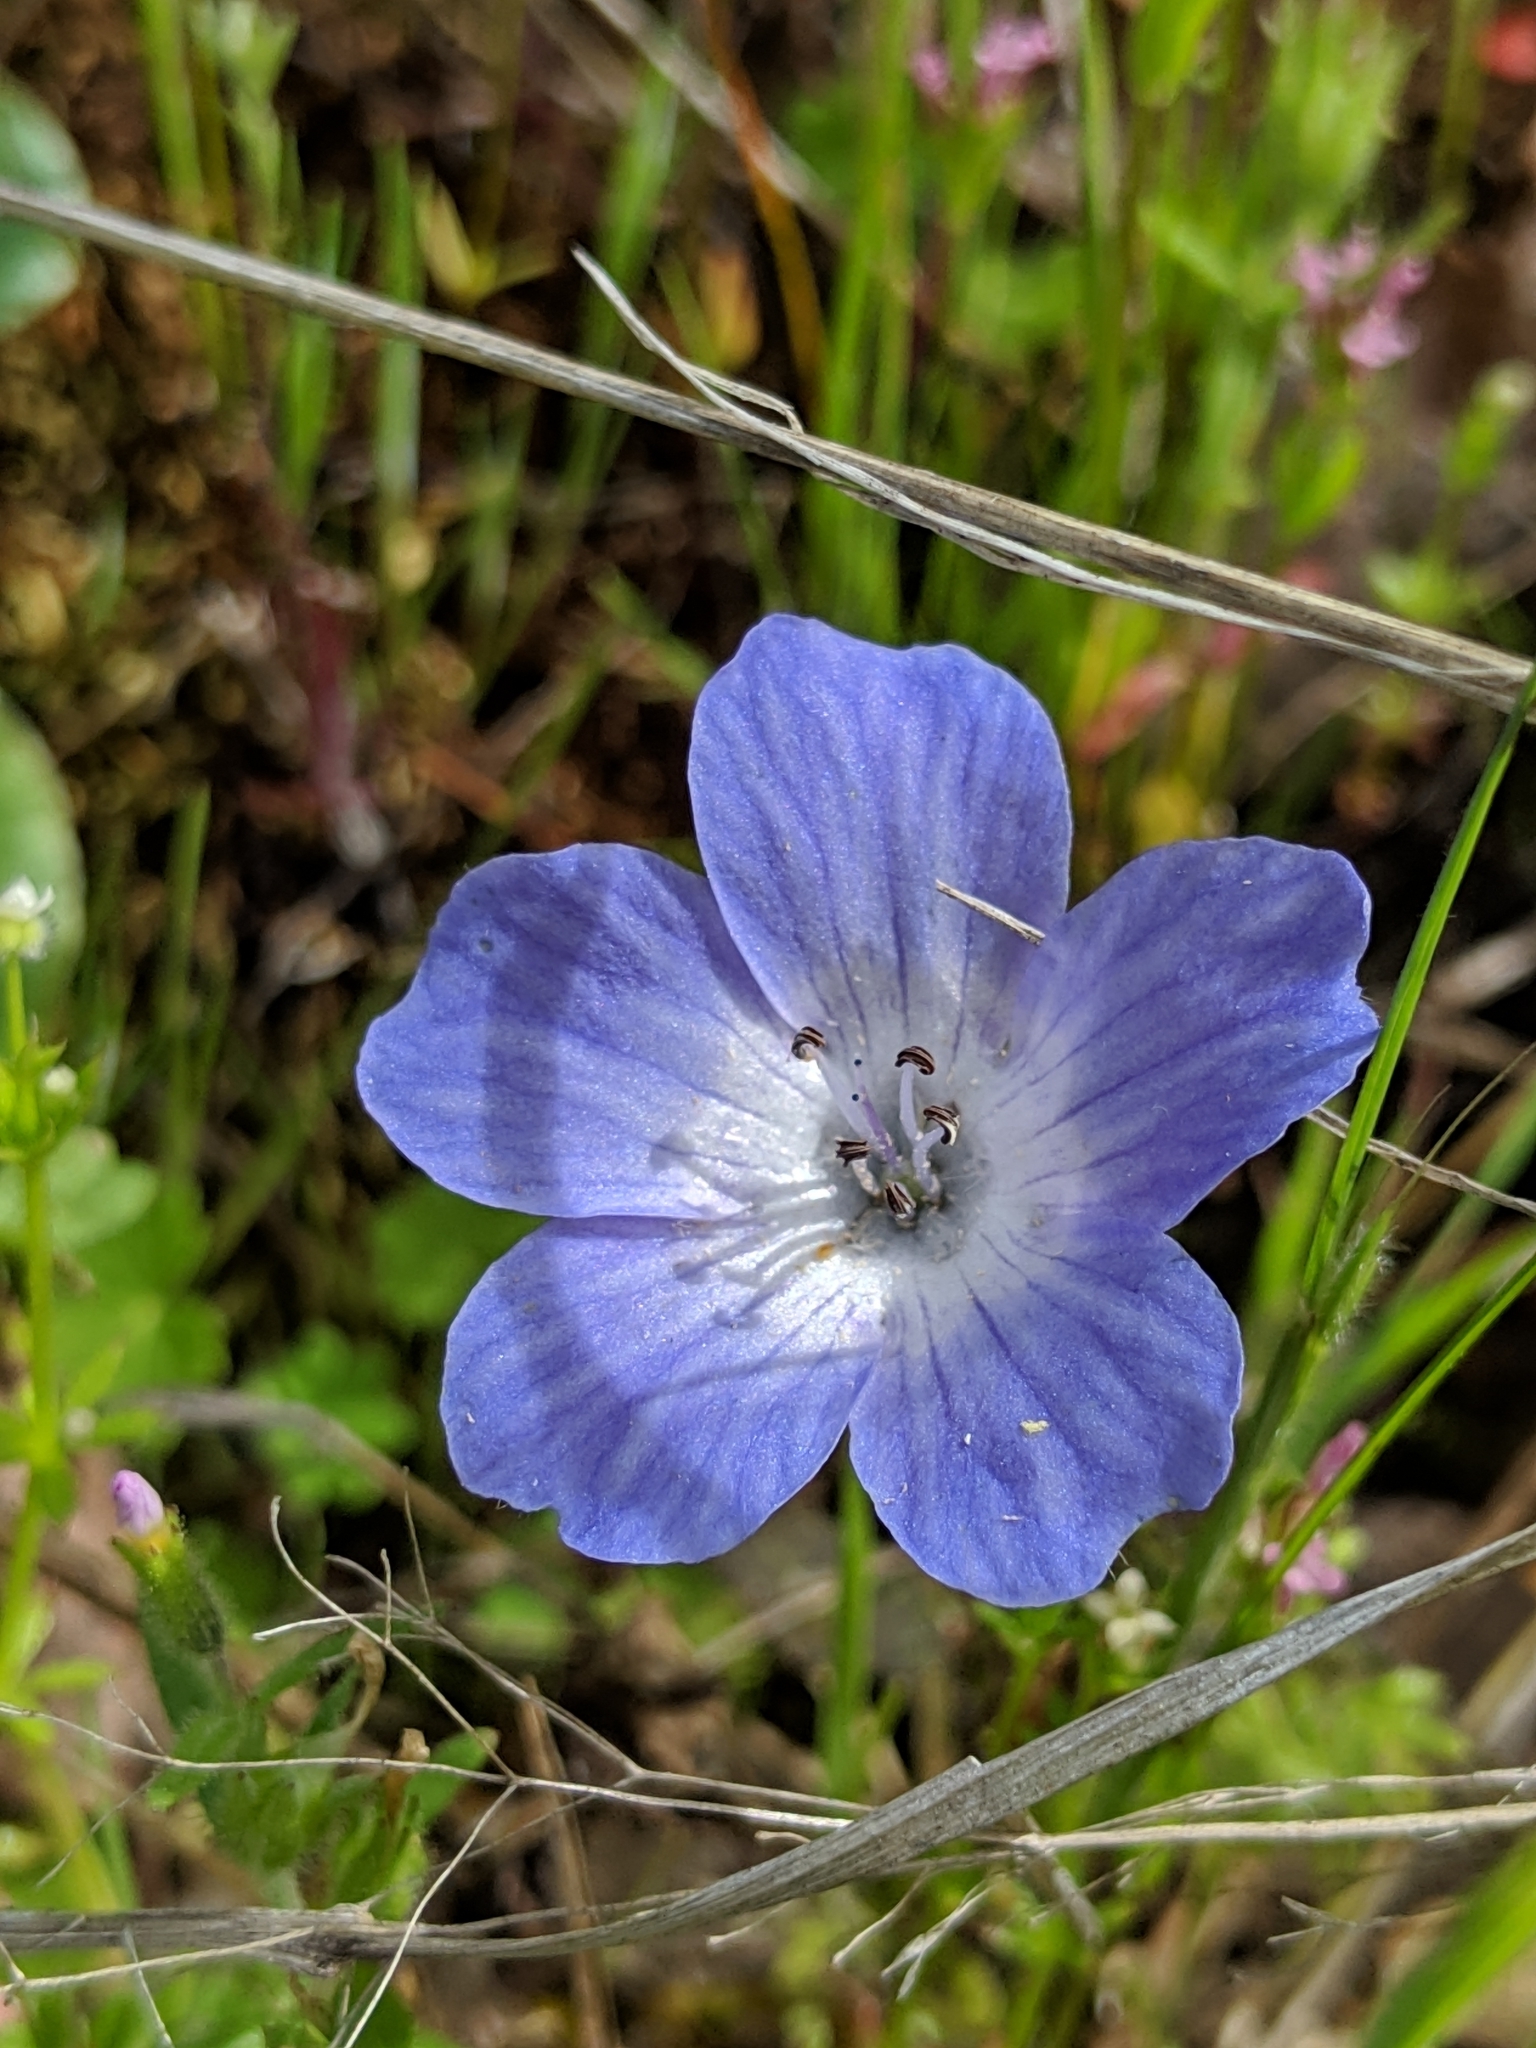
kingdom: Plantae
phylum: Tracheophyta
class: Magnoliopsida
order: Boraginales
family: Hydrophyllaceae
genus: Nemophila
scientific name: Nemophila menziesii
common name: Baby's-blue-eyes
